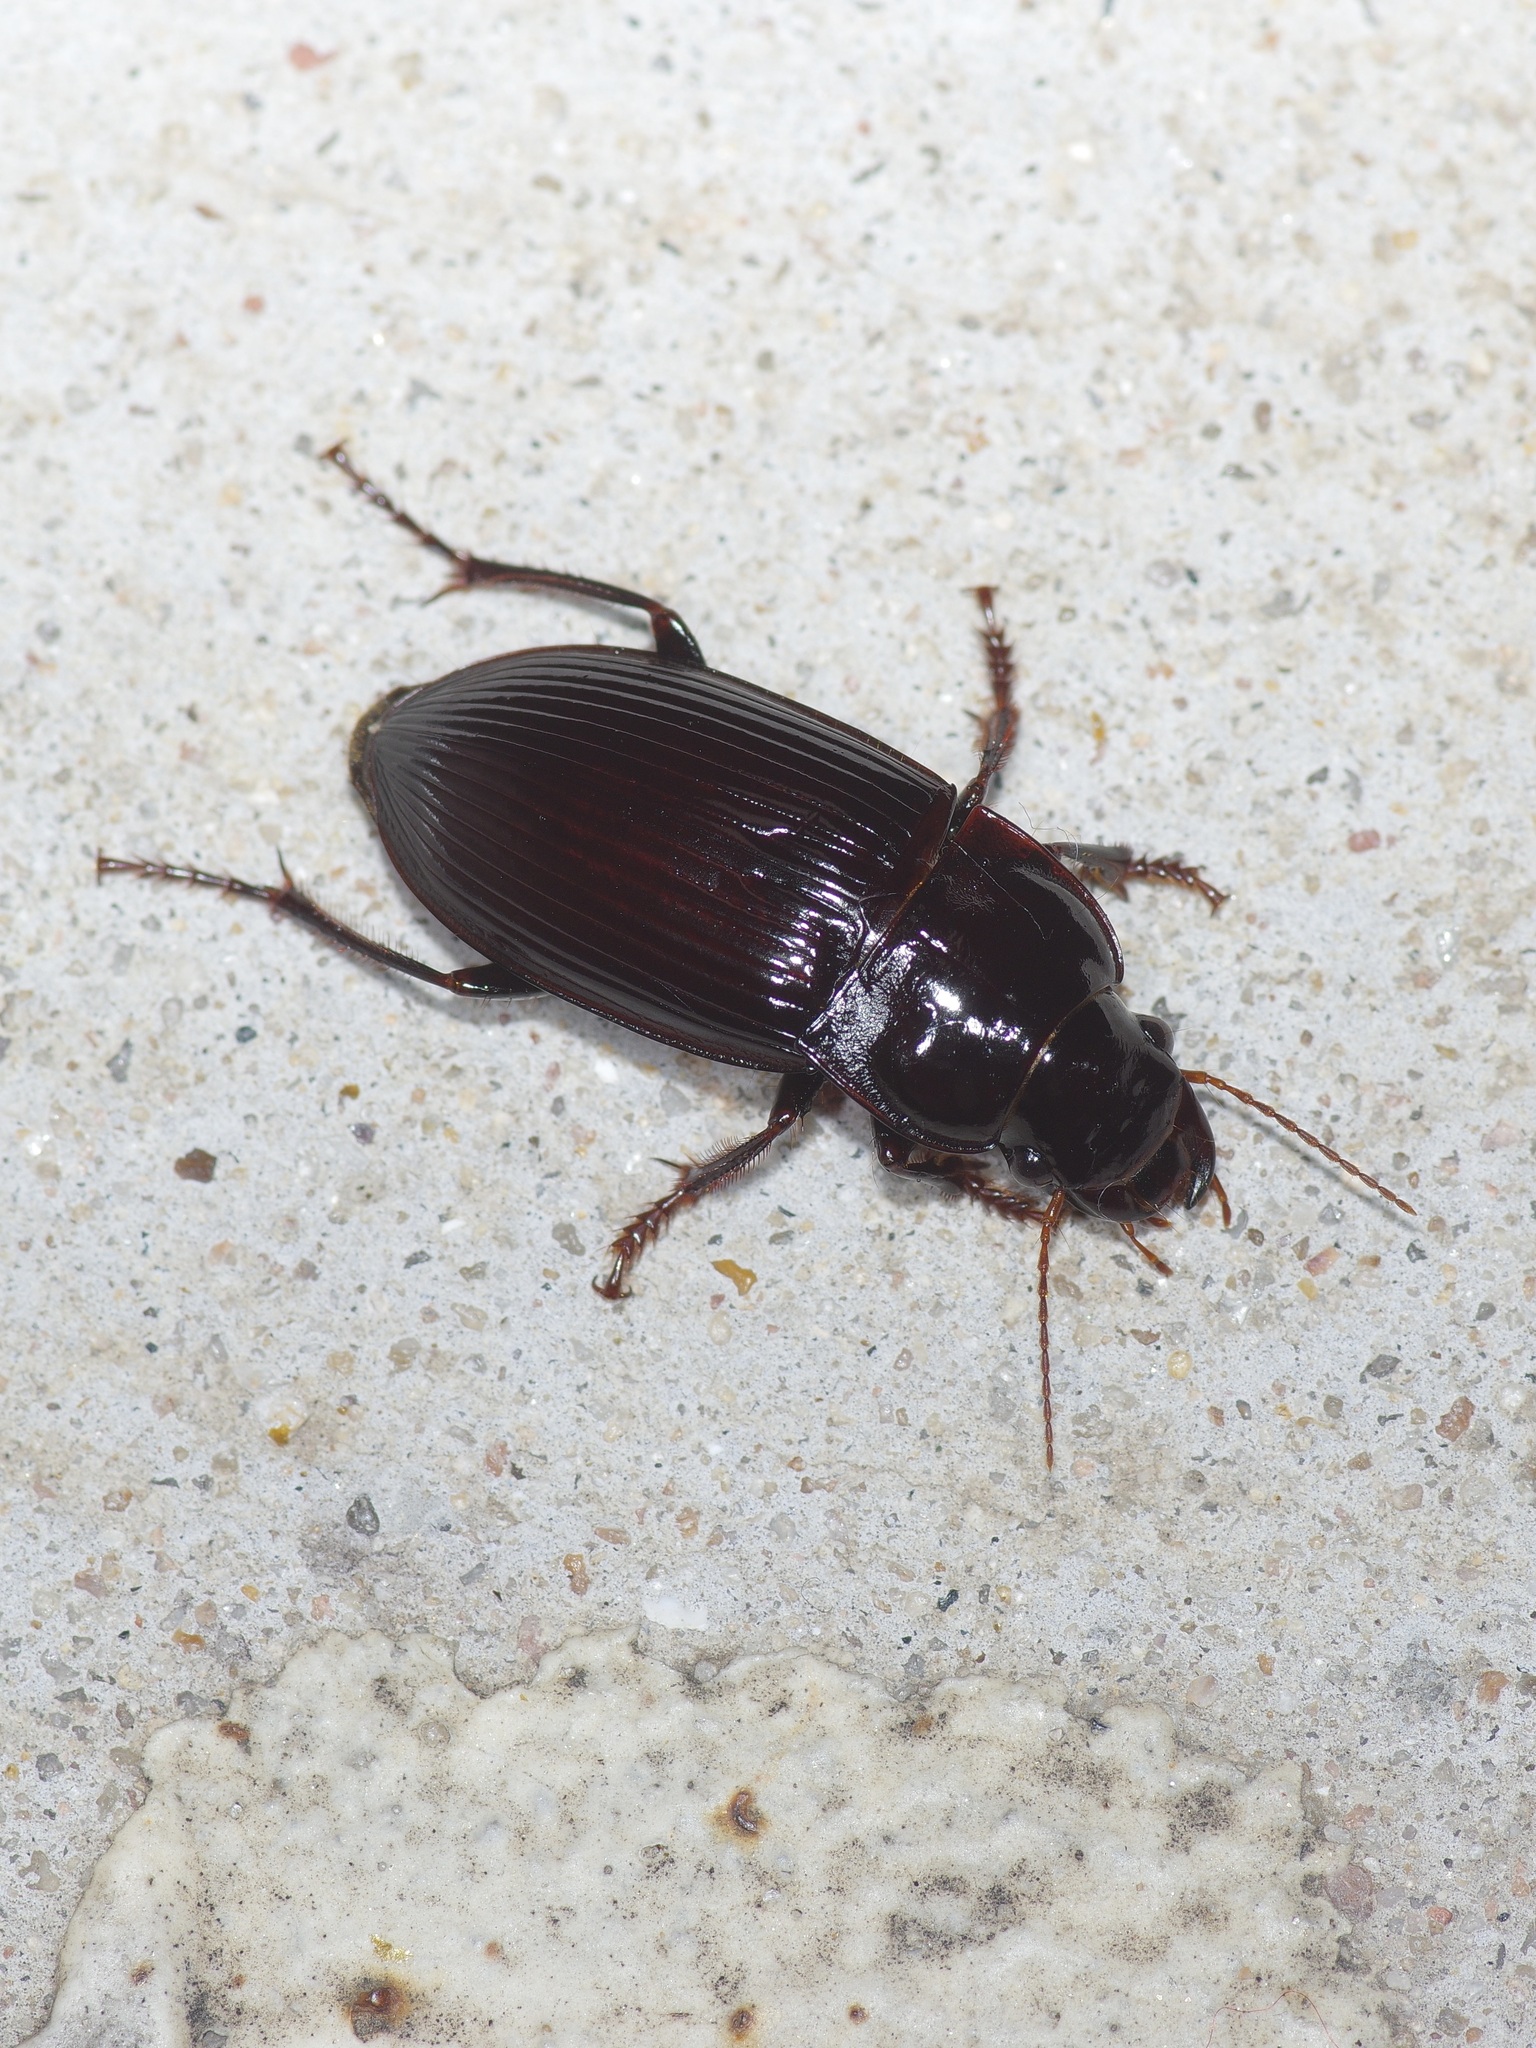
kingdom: Animalia
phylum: Arthropoda
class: Insecta
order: Coleoptera
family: Carabidae
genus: Harpalus
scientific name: Harpalus caliginosus
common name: Murky ground beetle
